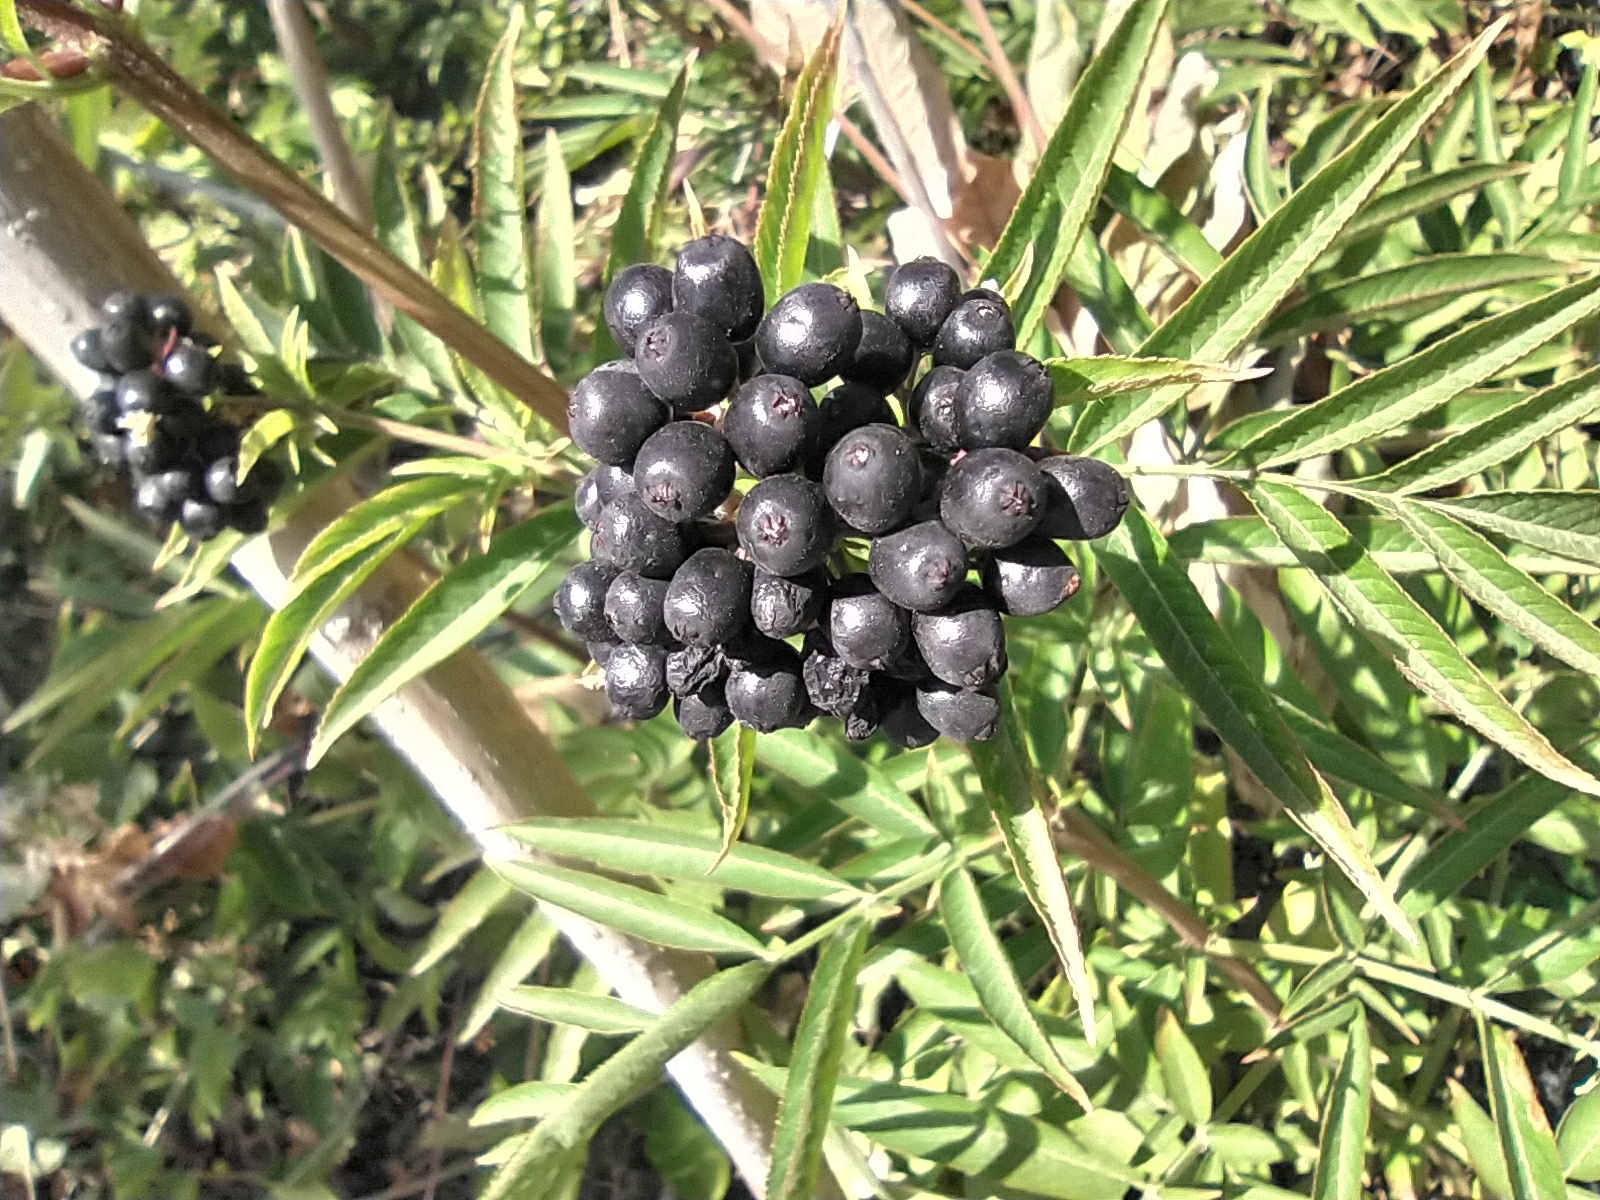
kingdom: Plantae
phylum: Tracheophyta
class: Magnoliopsida
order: Dipsacales
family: Viburnaceae
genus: Sambucus
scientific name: Sambucus ebulus
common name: Dwarf elder
